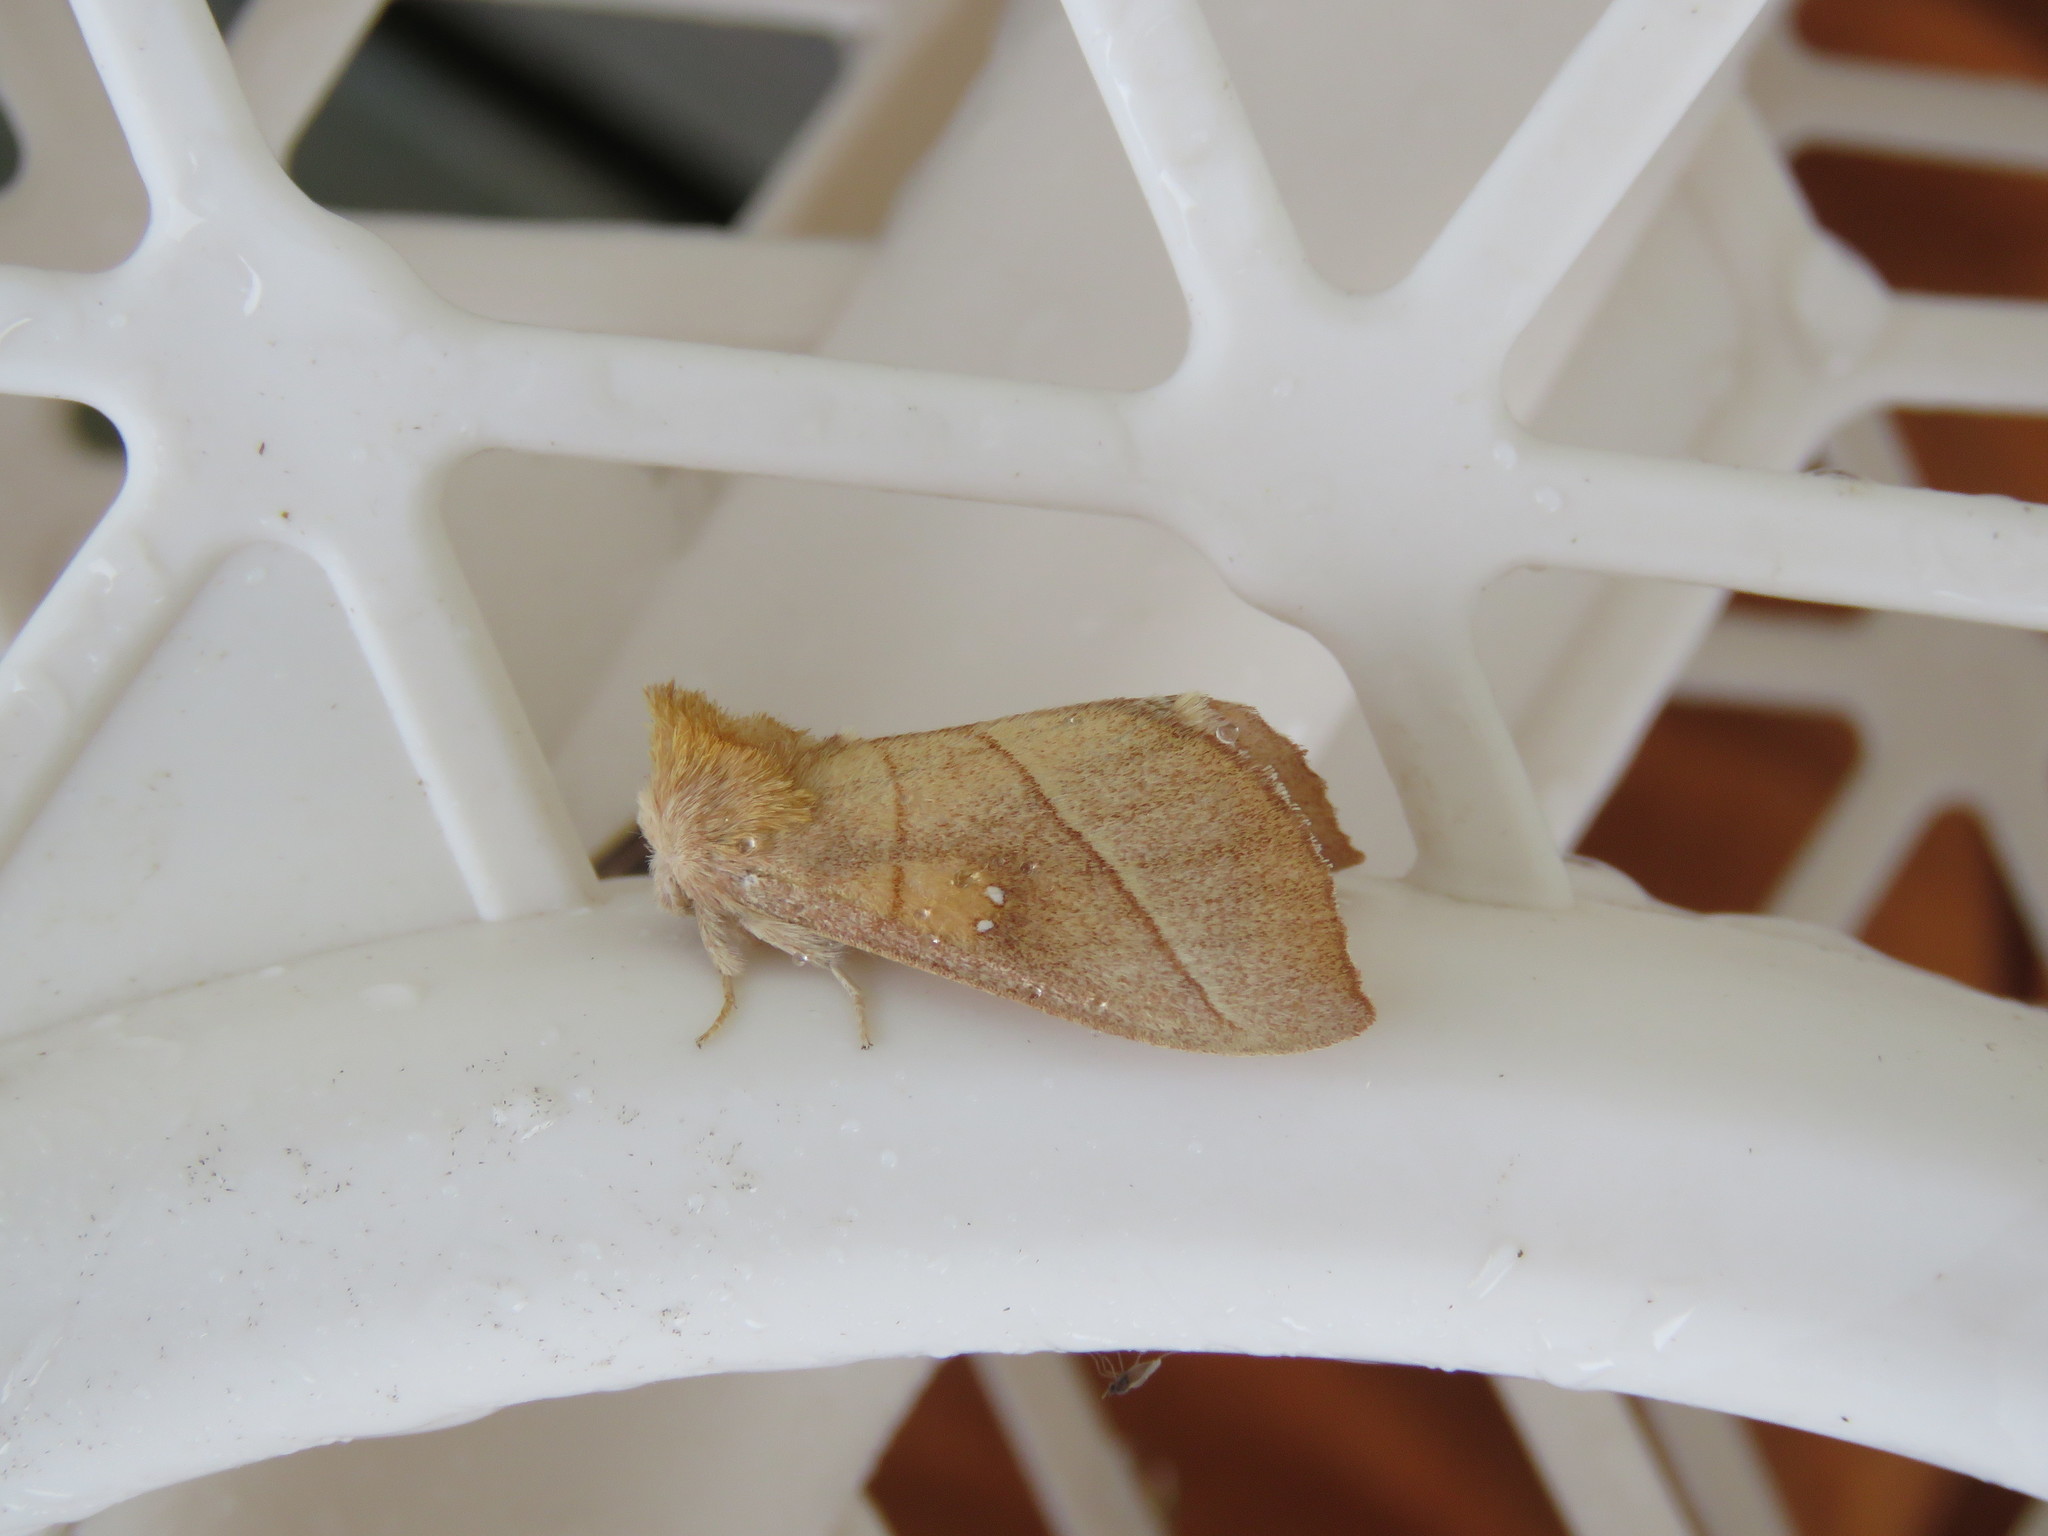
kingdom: Animalia
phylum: Arthropoda
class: Insecta
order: Lepidoptera
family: Notodontidae
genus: Nadata
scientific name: Nadata gibbosa
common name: White-dotted prominent
